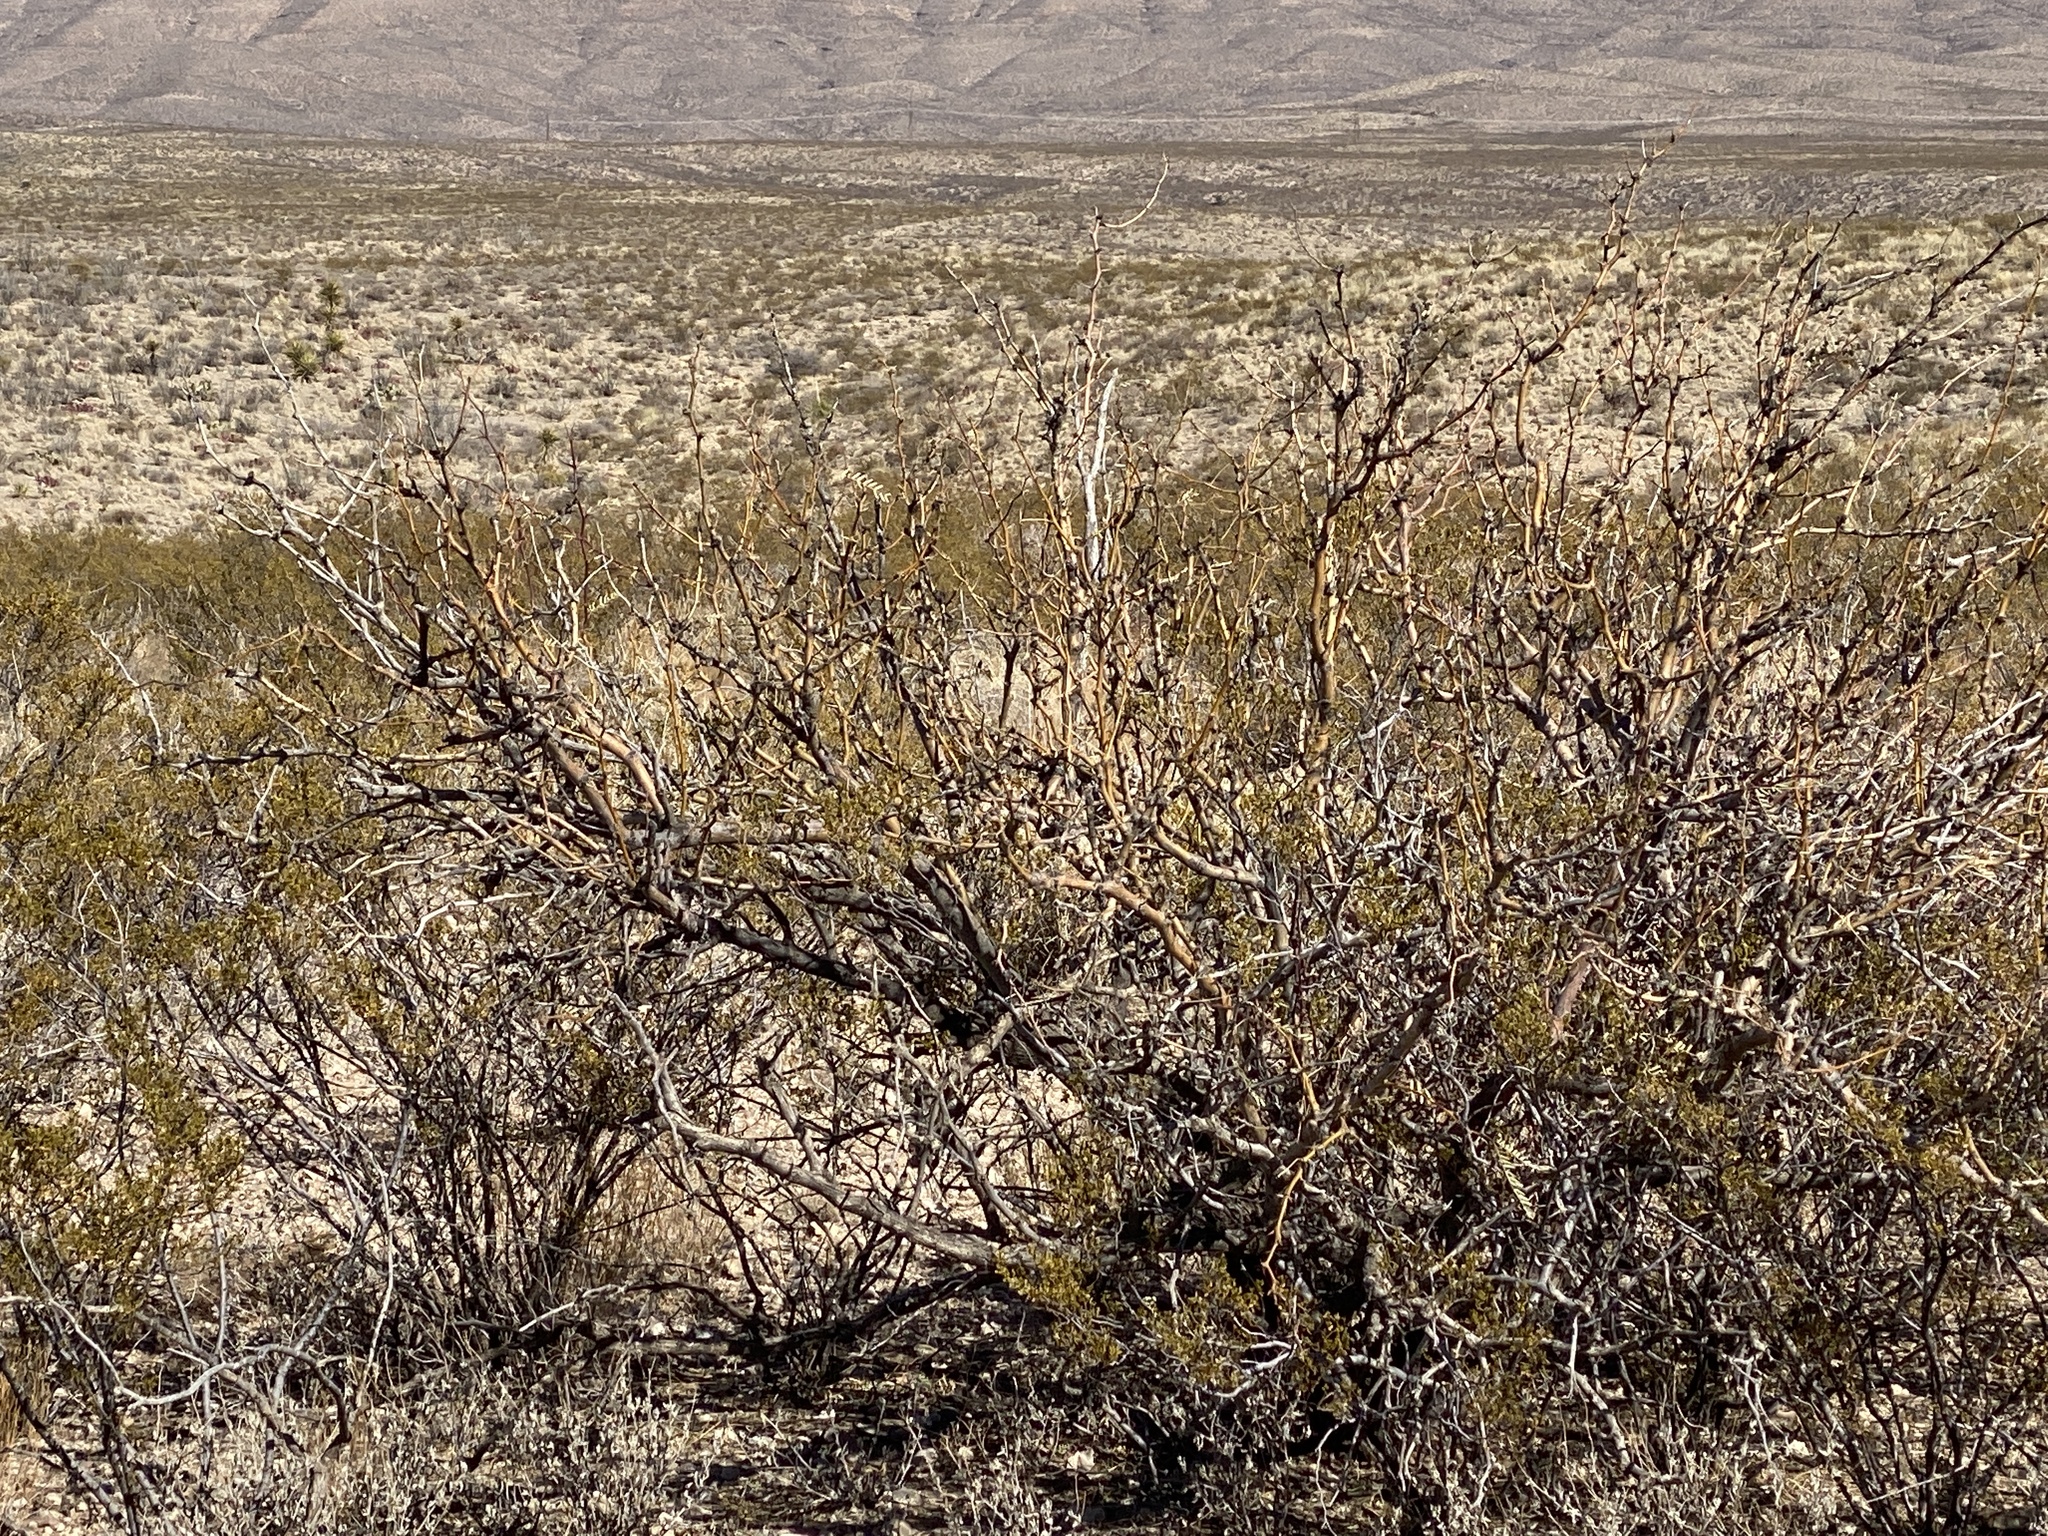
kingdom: Plantae
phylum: Tracheophyta
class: Magnoliopsida
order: Fabales
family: Fabaceae
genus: Prosopis
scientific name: Prosopis glandulosa
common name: Honey mesquite
